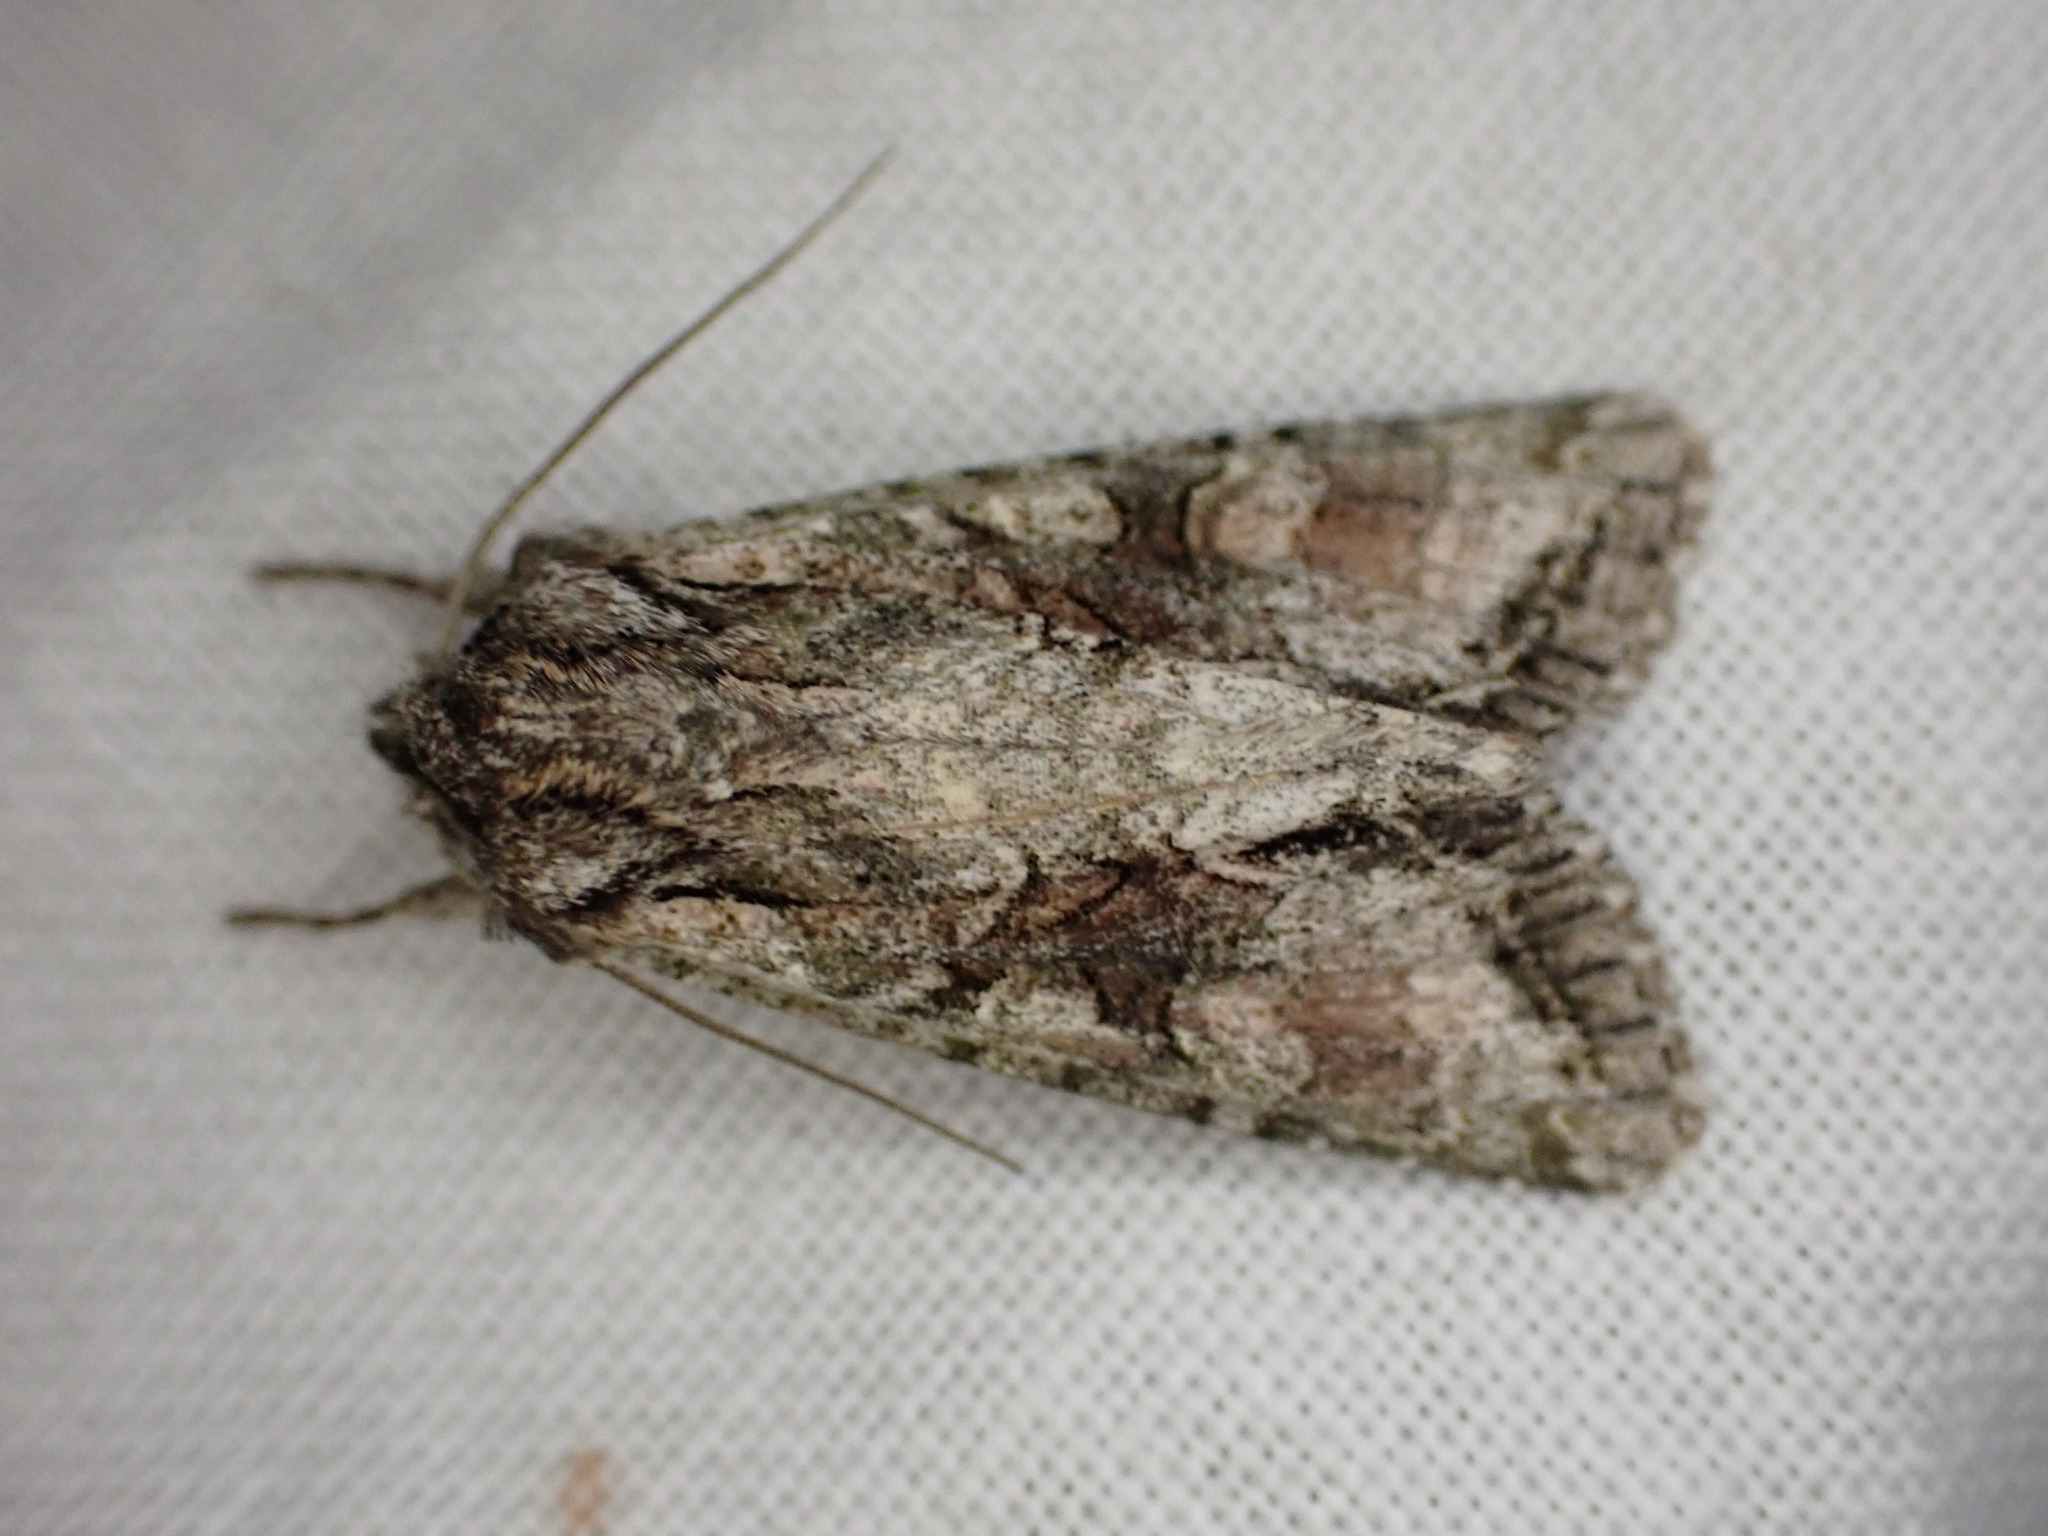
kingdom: Animalia
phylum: Arthropoda
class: Insecta
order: Lepidoptera
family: Noctuidae
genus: Ichneutica
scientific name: Ichneutica mutans
